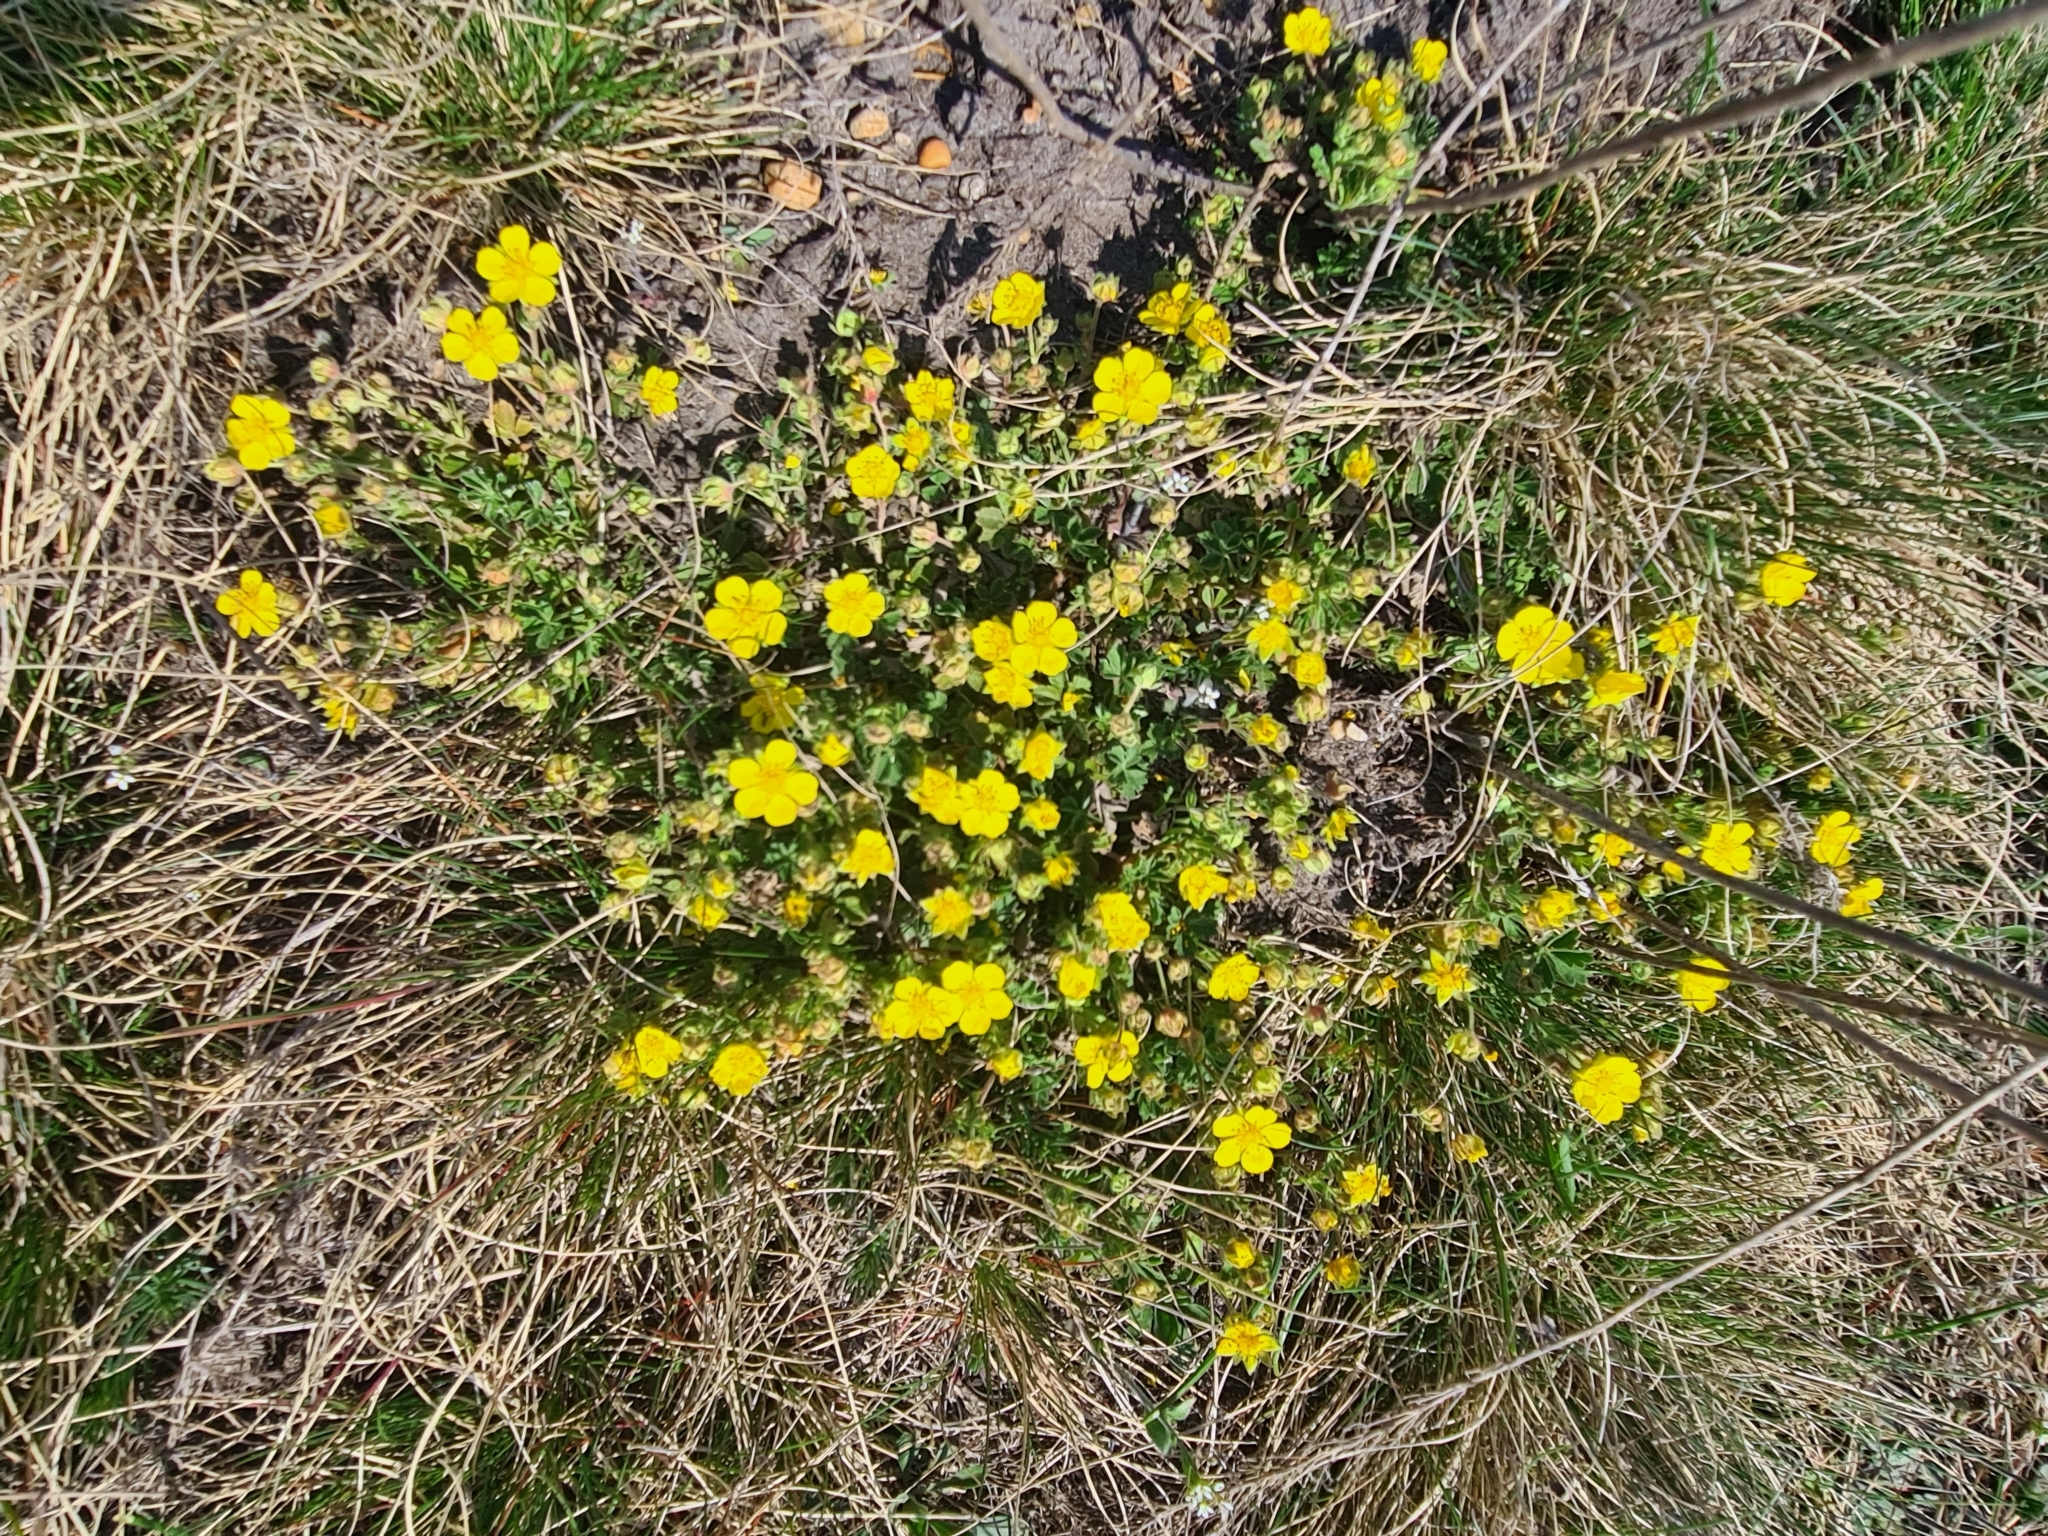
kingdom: Plantae
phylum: Tracheophyta
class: Magnoliopsida
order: Rosales
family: Rosaceae
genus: Potentilla
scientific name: Potentilla incana
